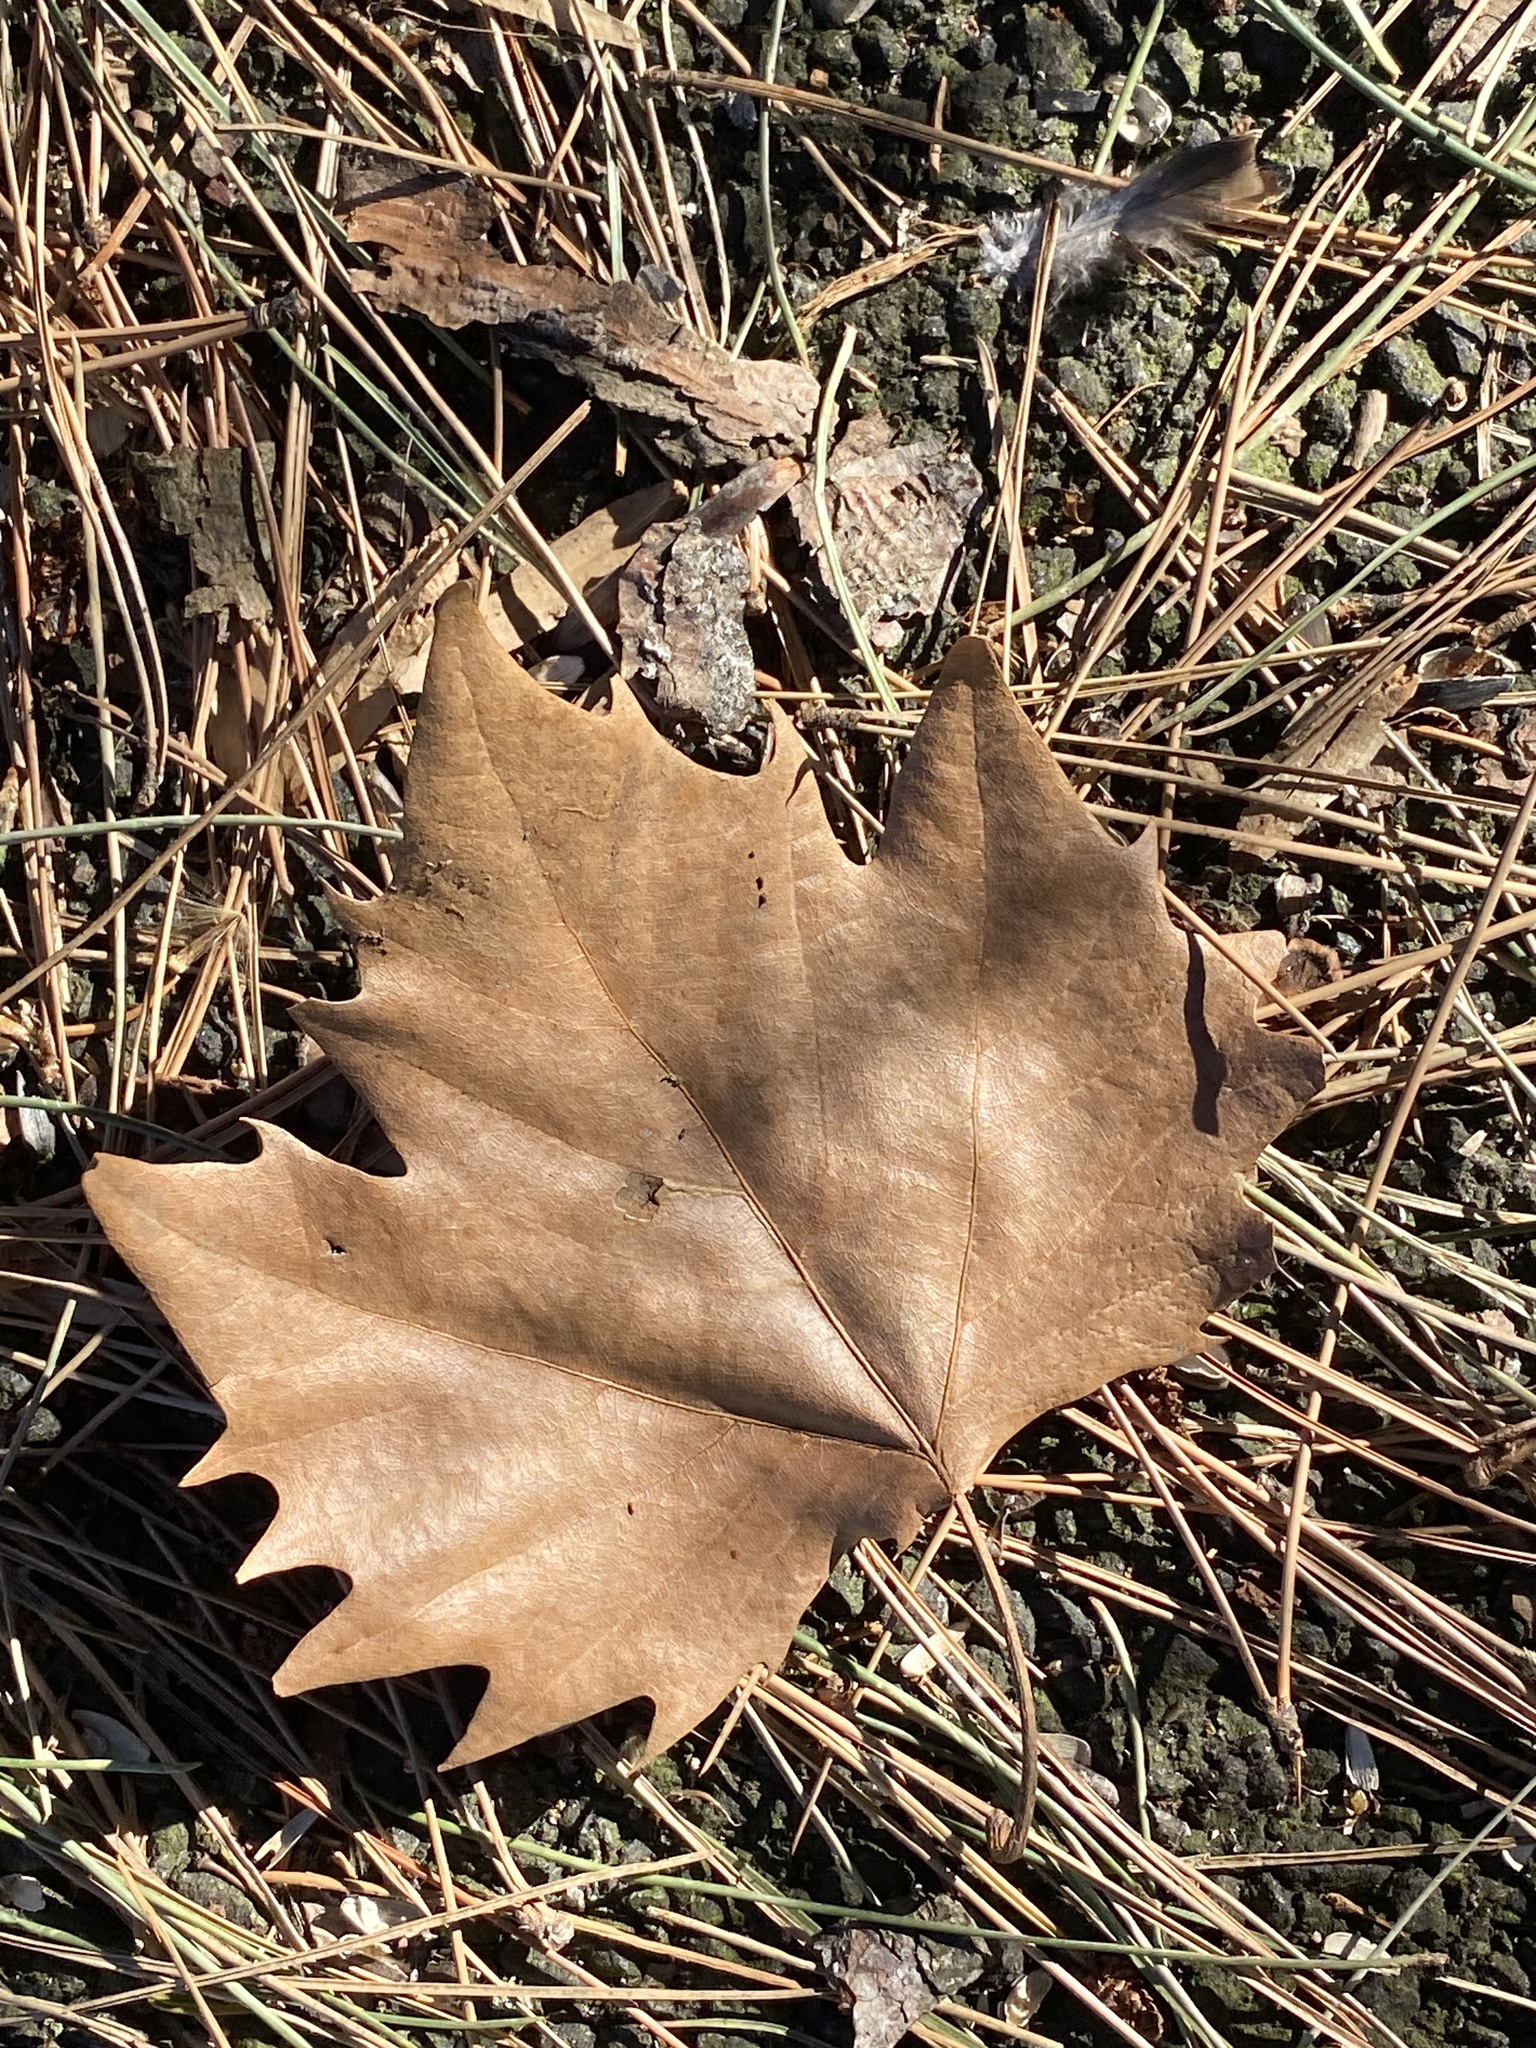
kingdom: Plantae
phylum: Tracheophyta
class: Magnoliopsida
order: Proteales
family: Platanaceae
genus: Platanus
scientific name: Platanus
